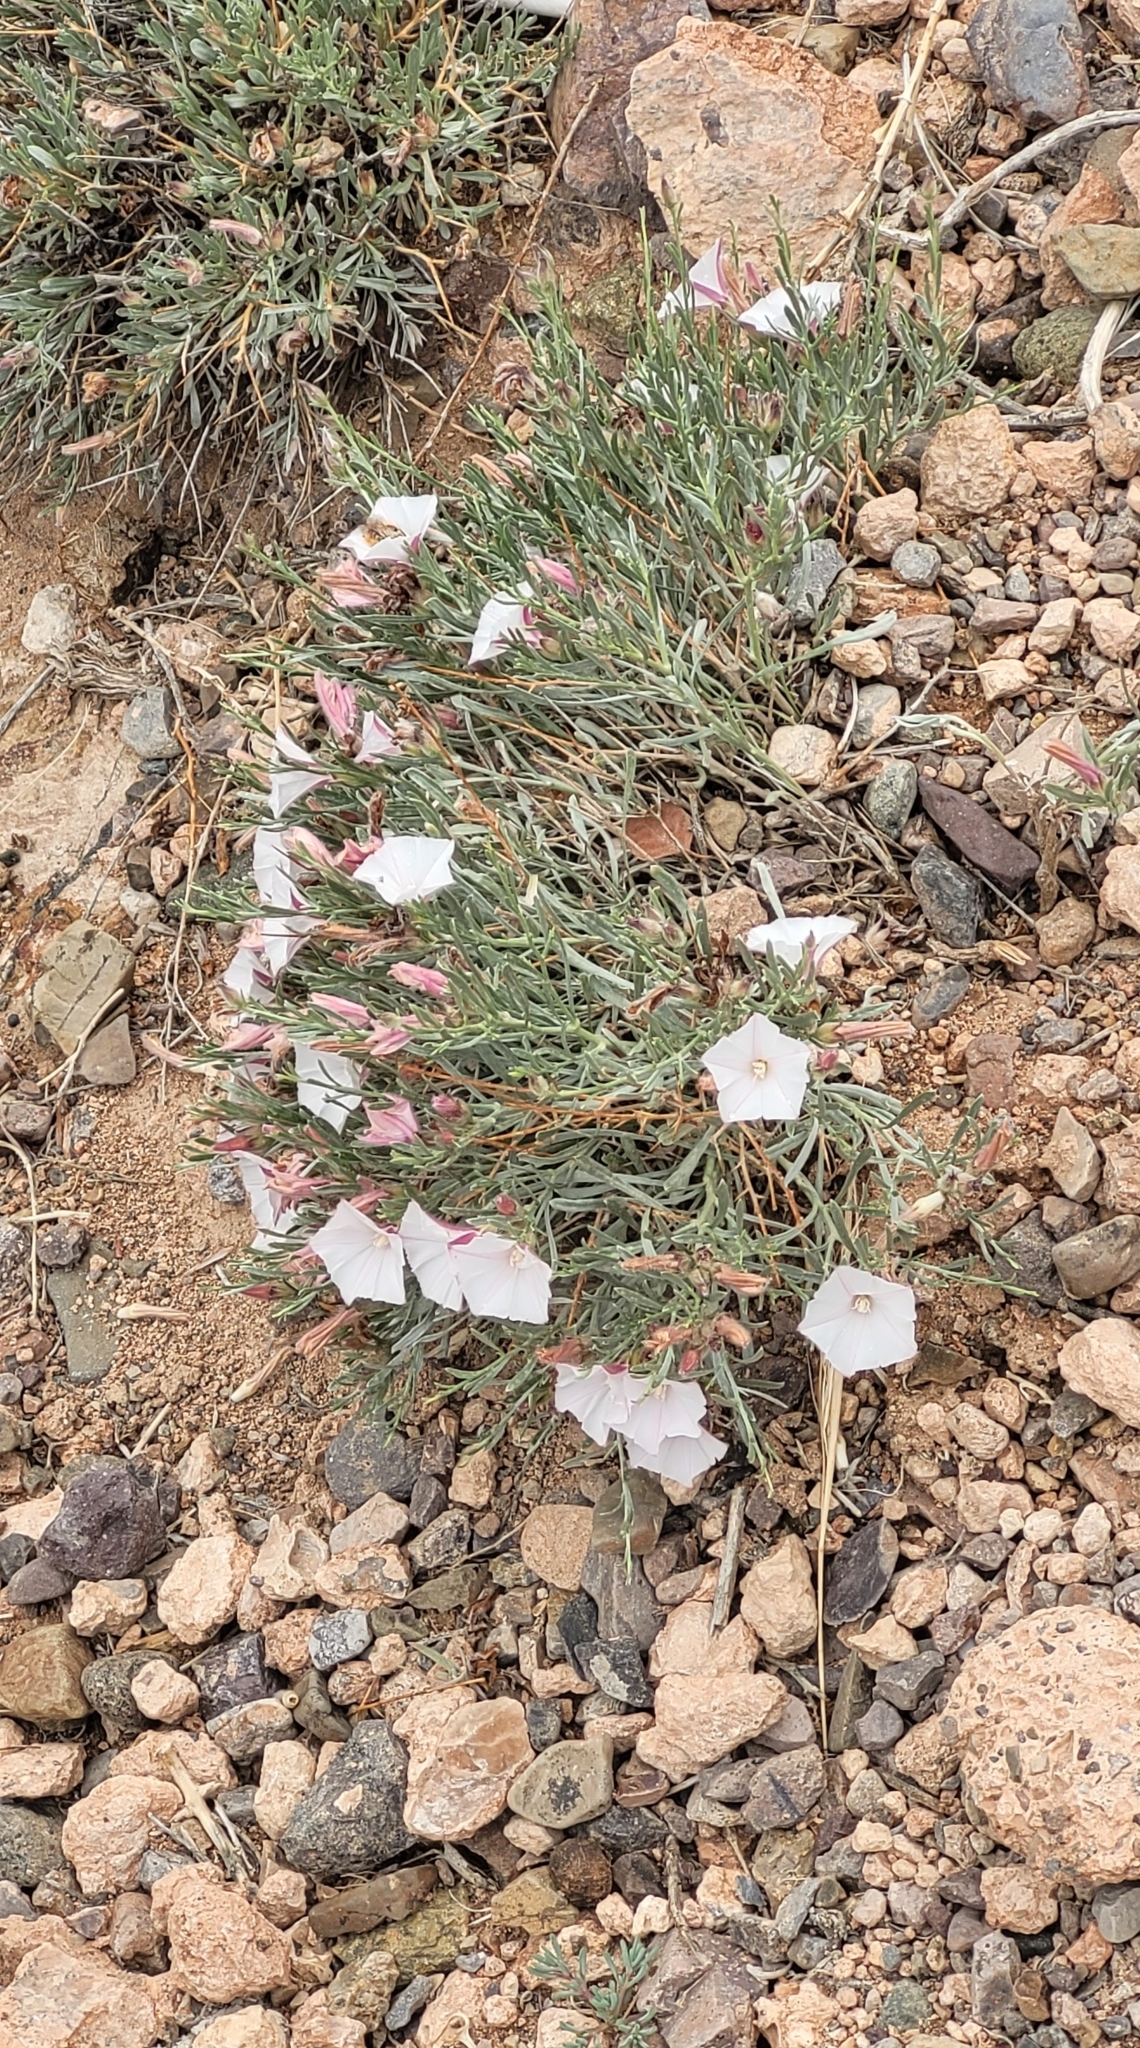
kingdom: Plantae
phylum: Tracheophyta
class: Magnoliopsida
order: Solanales
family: Convolvulaceae
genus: Convolvulus
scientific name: Convolvulus tragacanthoides
